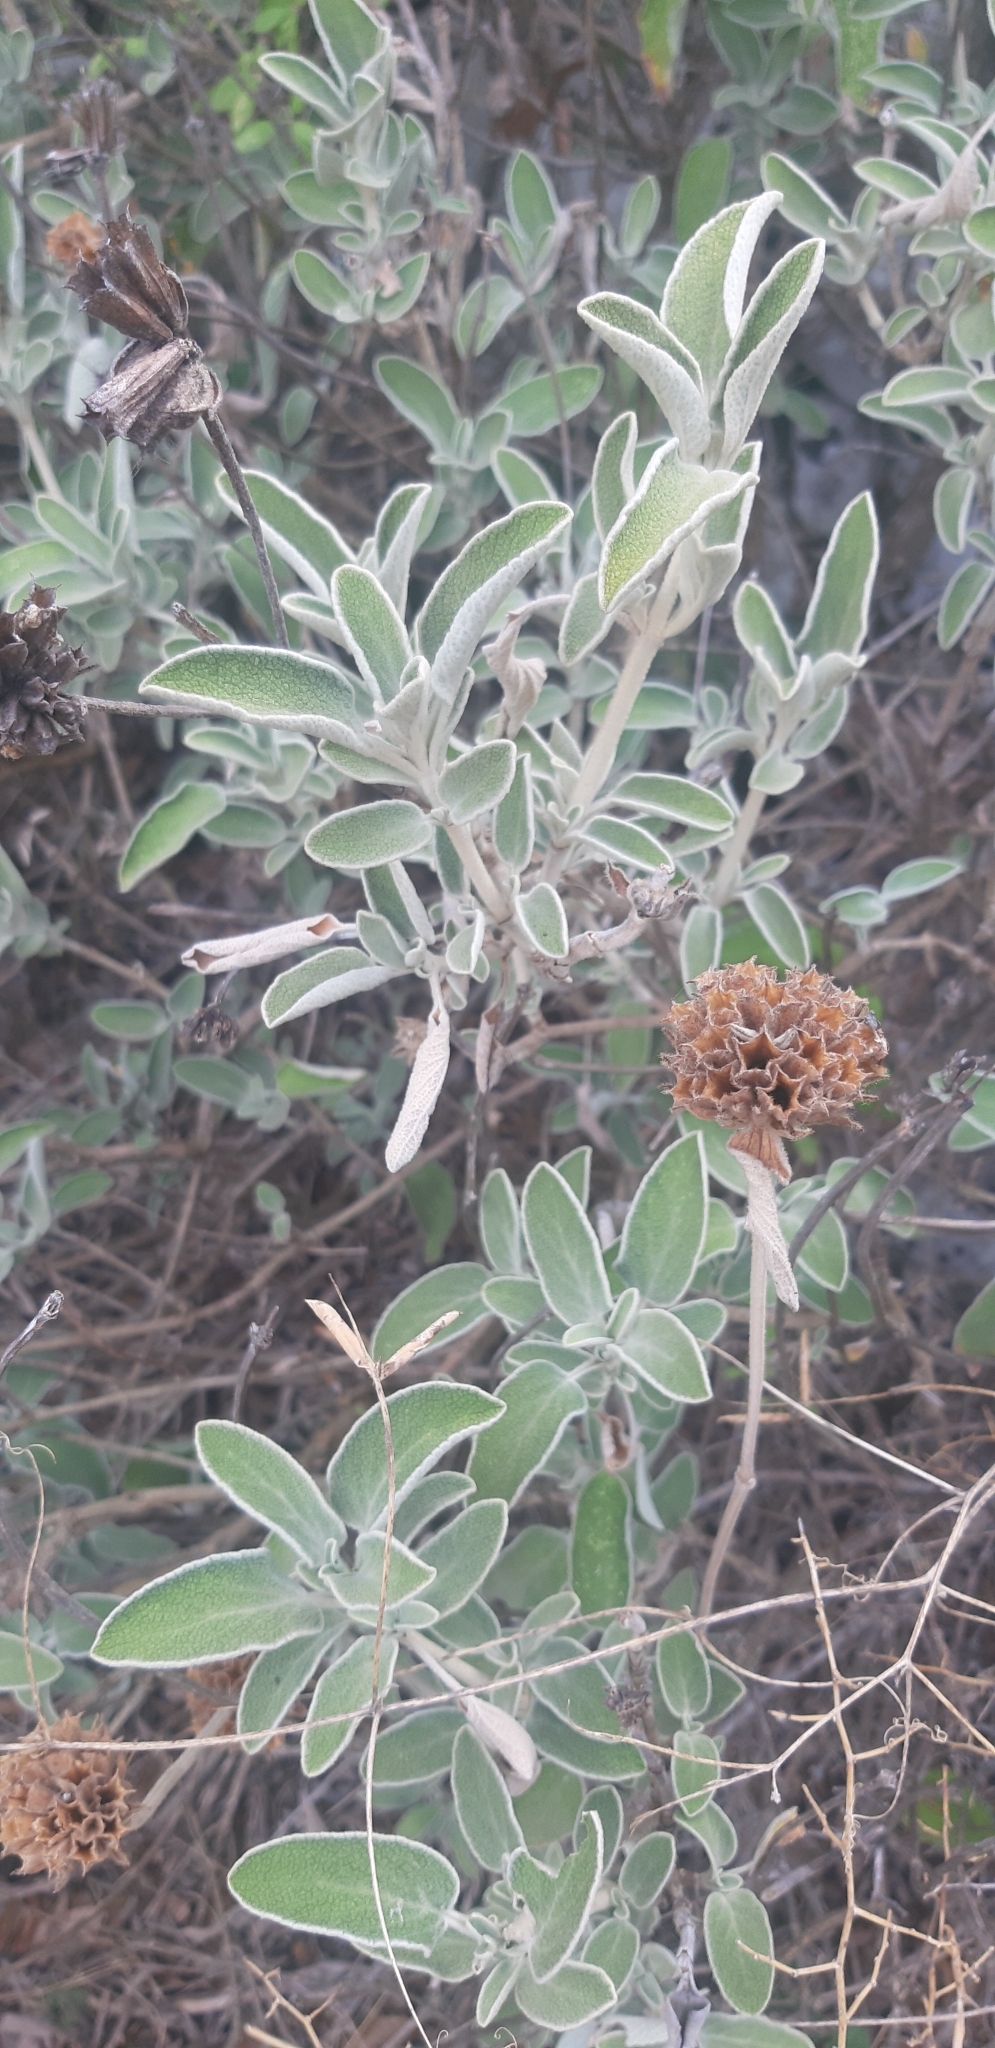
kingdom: Plantae
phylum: Tracheophyta
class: Magnoliopsida
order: Lamiales
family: Lamiaceae
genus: Phlomis
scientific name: Phlomis fruticosa
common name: Jerusalem sage
